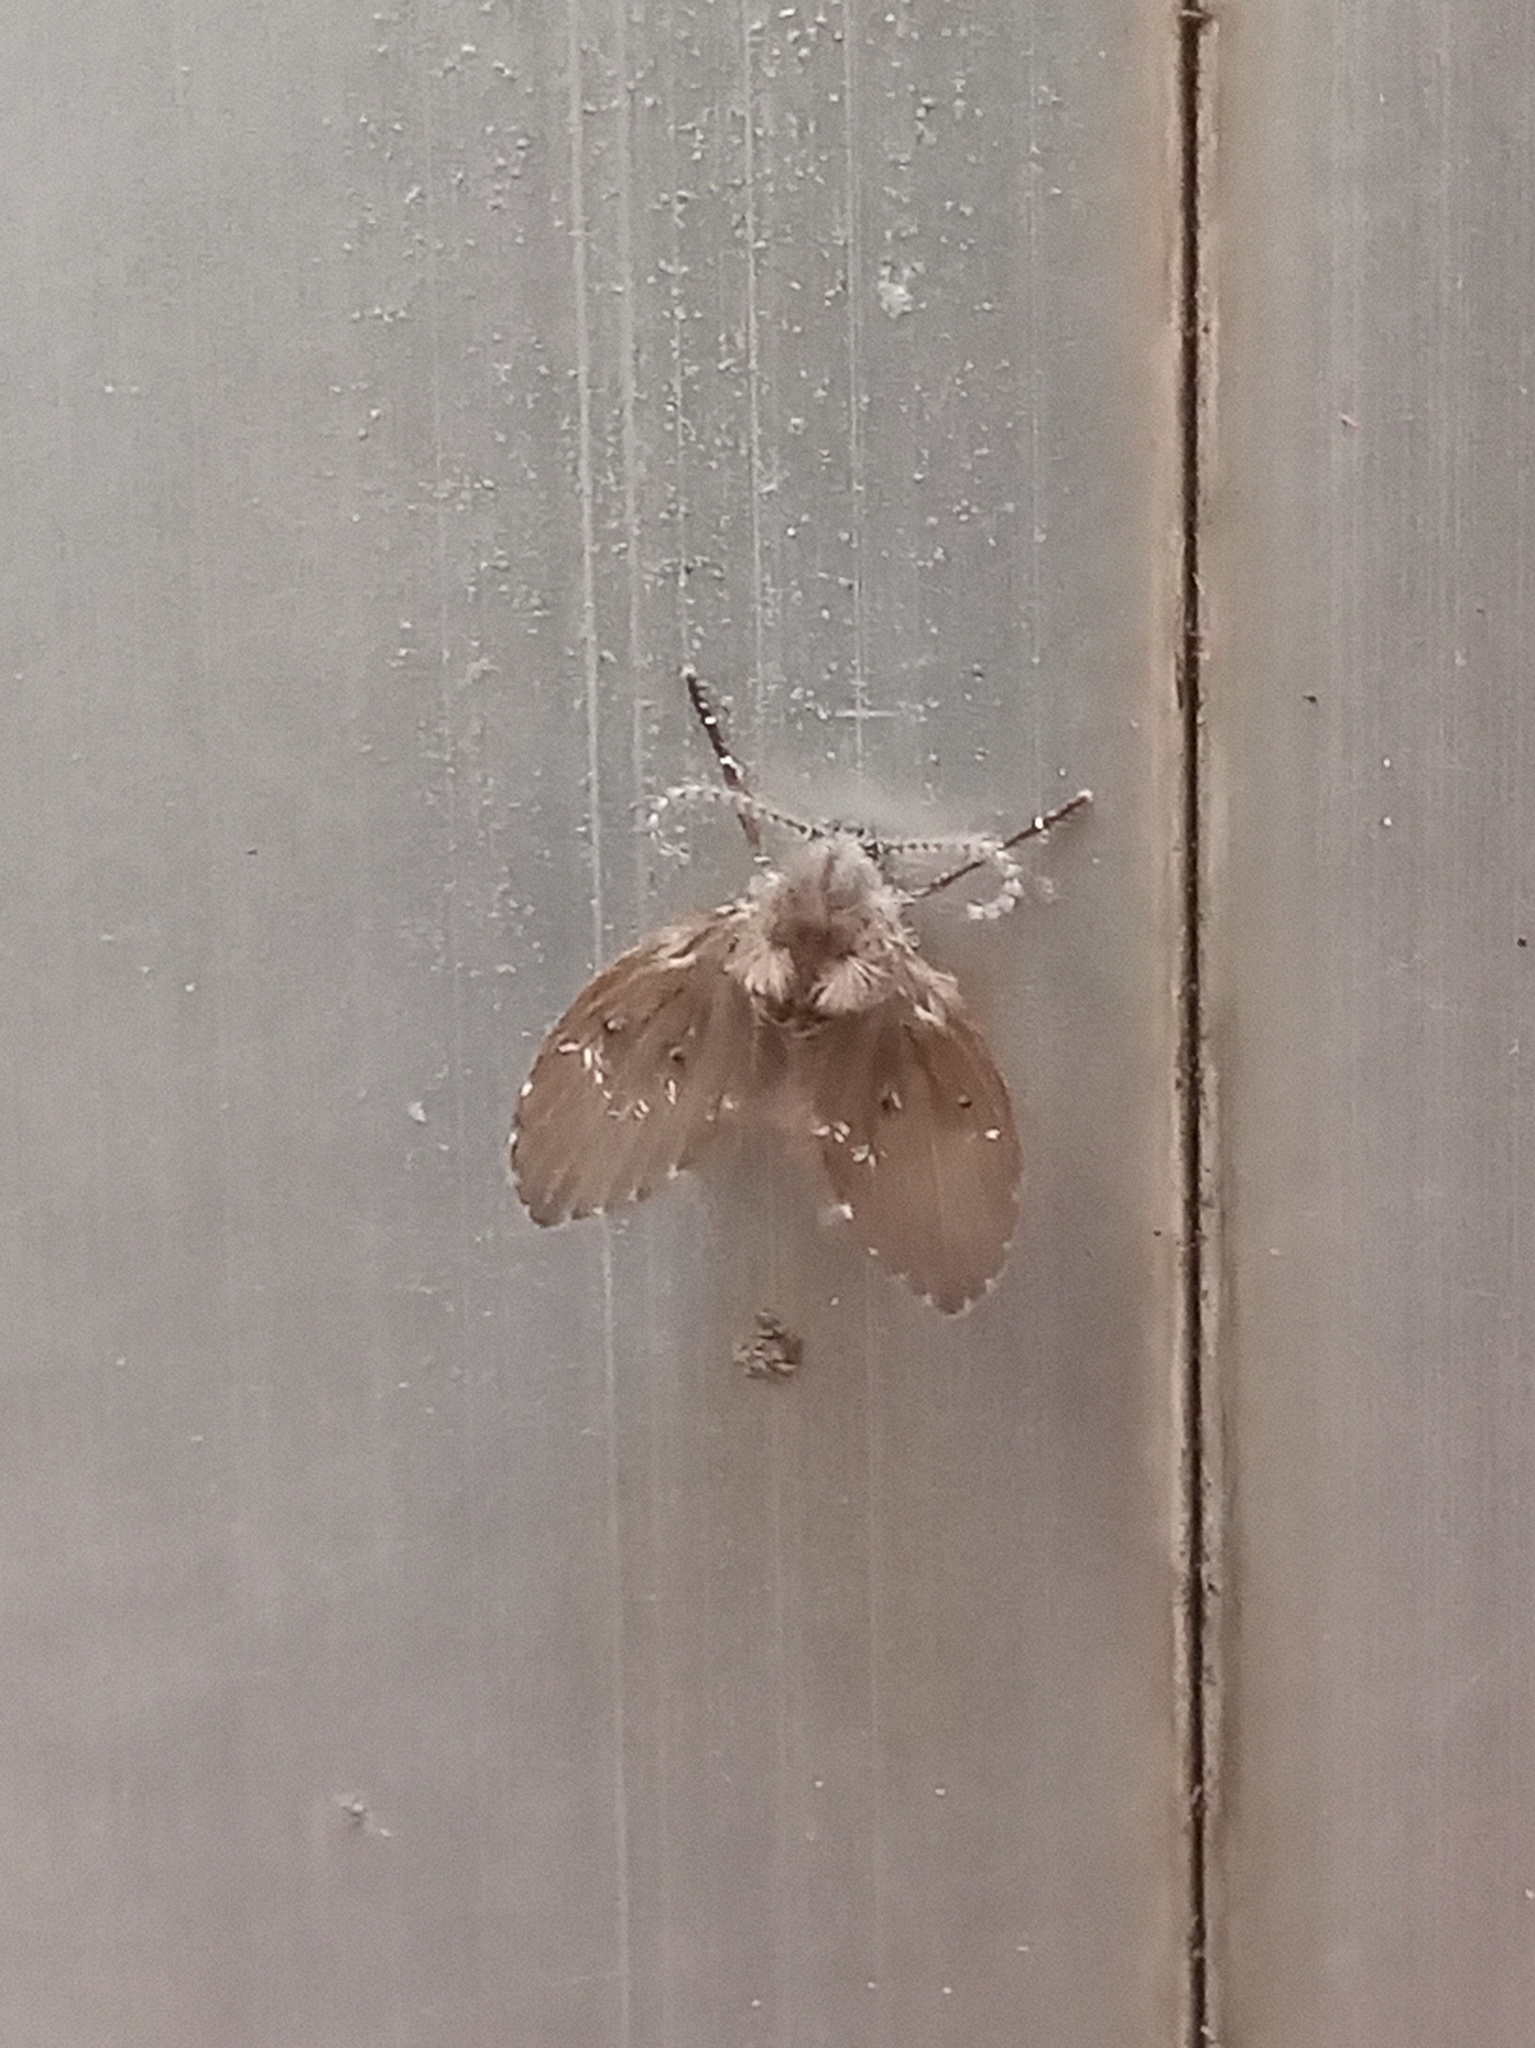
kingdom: Animalia
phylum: Arthropoda
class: Insecta
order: Diptera
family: Psychodidae
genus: Clogmia
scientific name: Clogmia albipunctatus
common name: White-spotted moth fly
